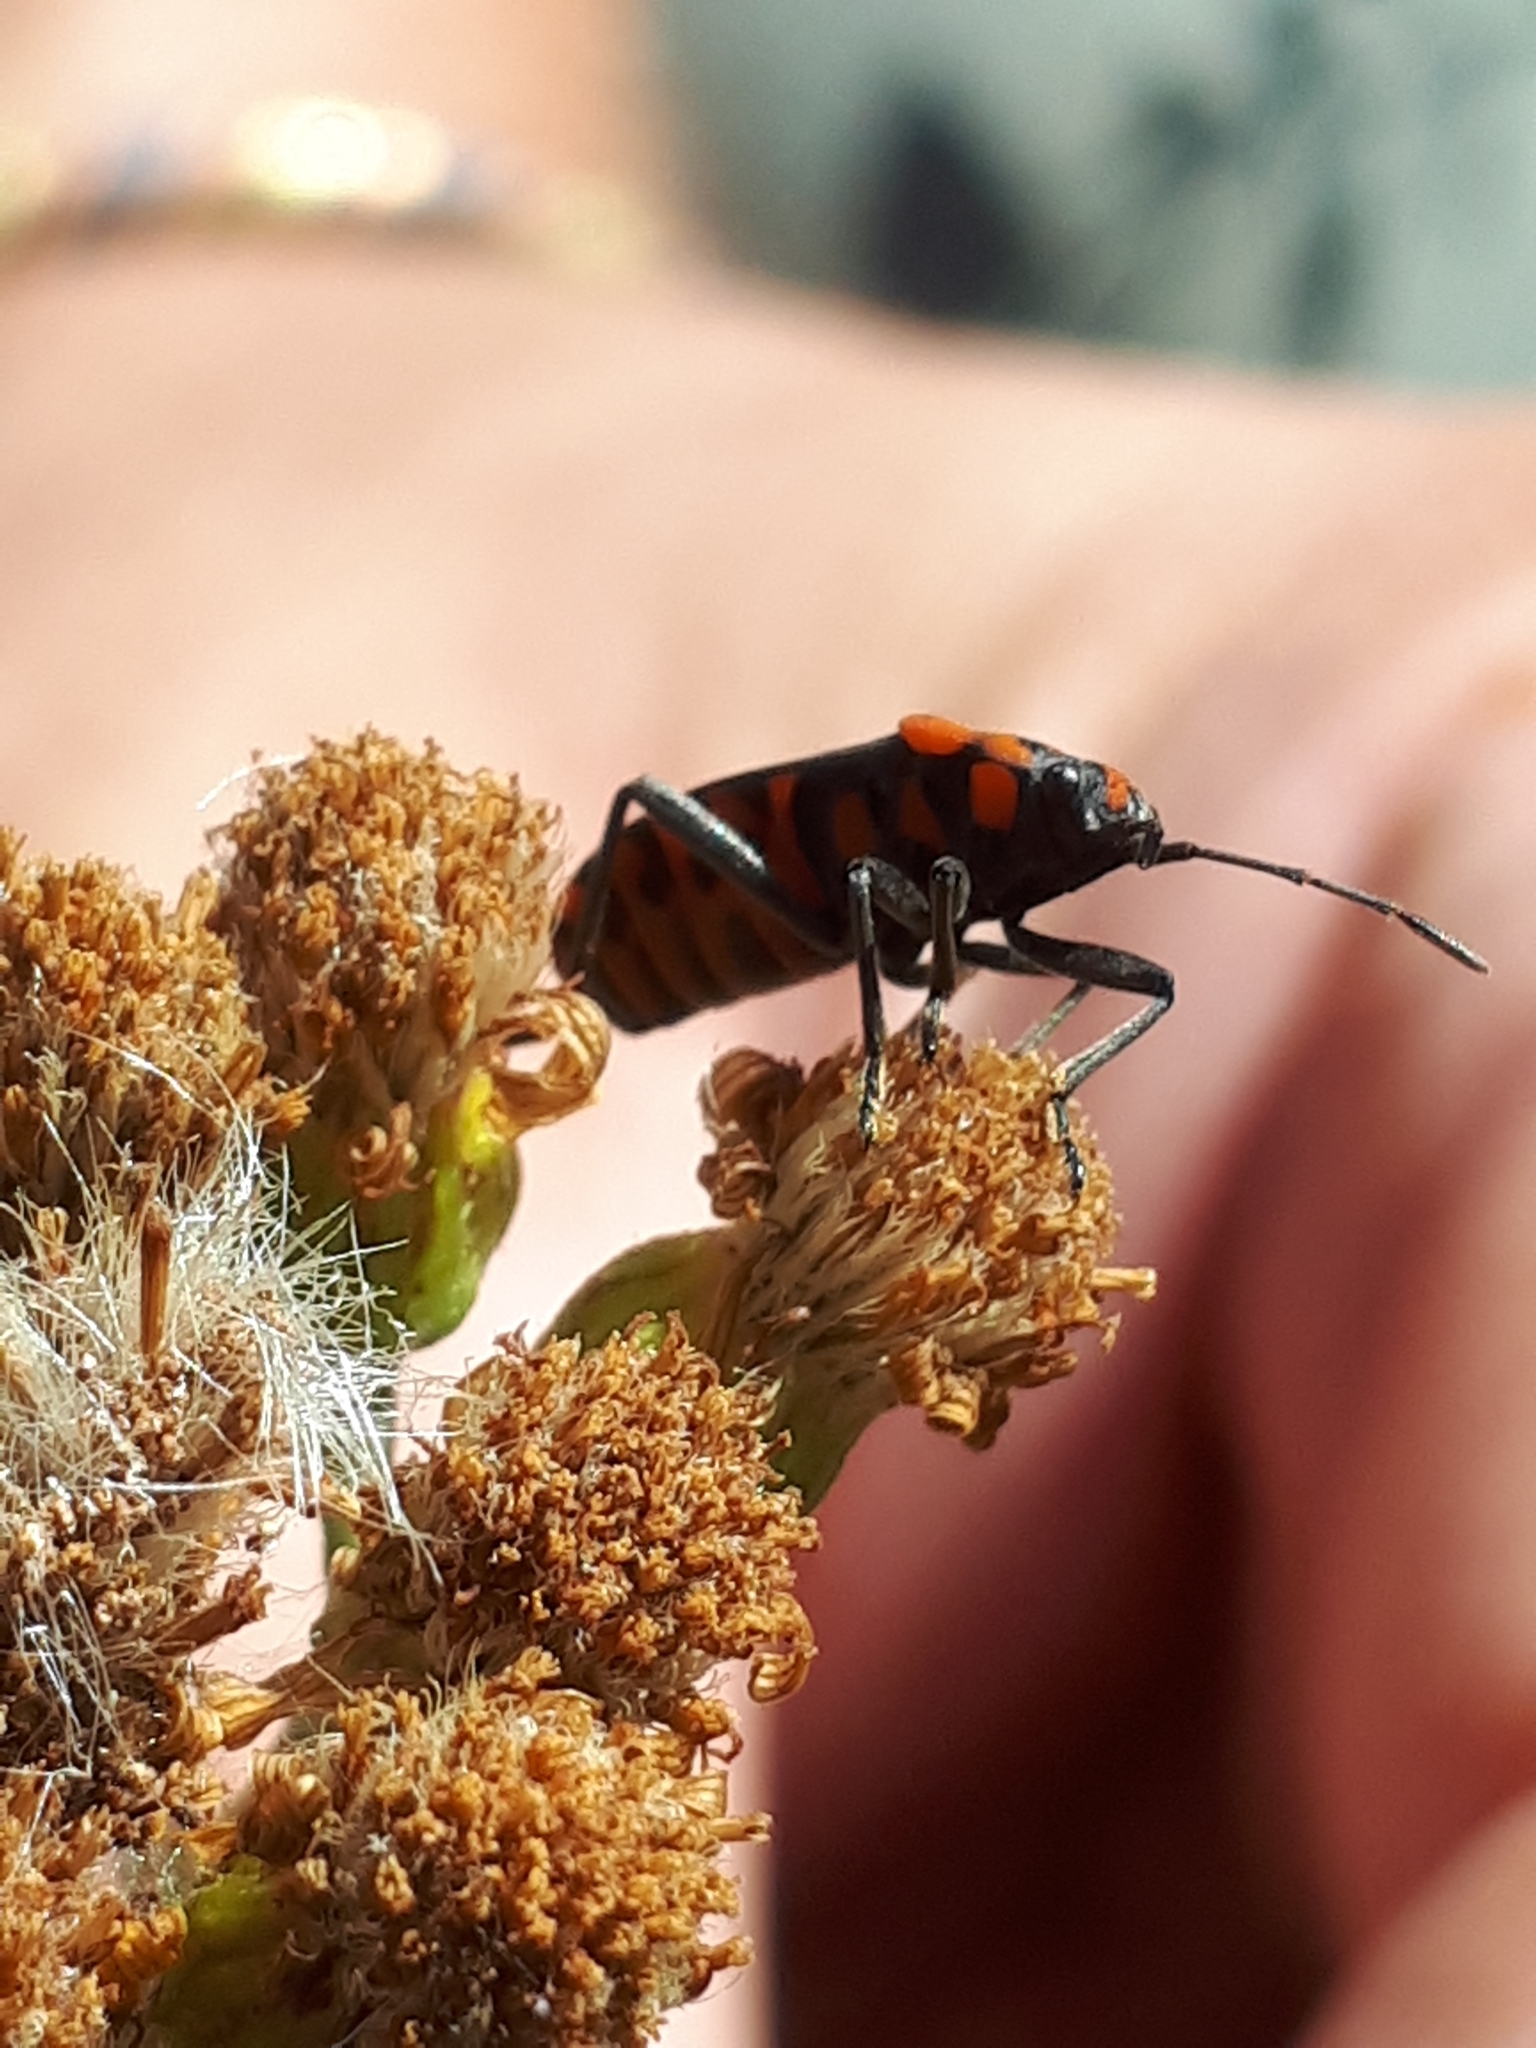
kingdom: Animalia
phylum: Arthropoda
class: Insecta
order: Hemiptera
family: Lygaeidae
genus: Spilostethus
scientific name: Spilostethus saxatilis
